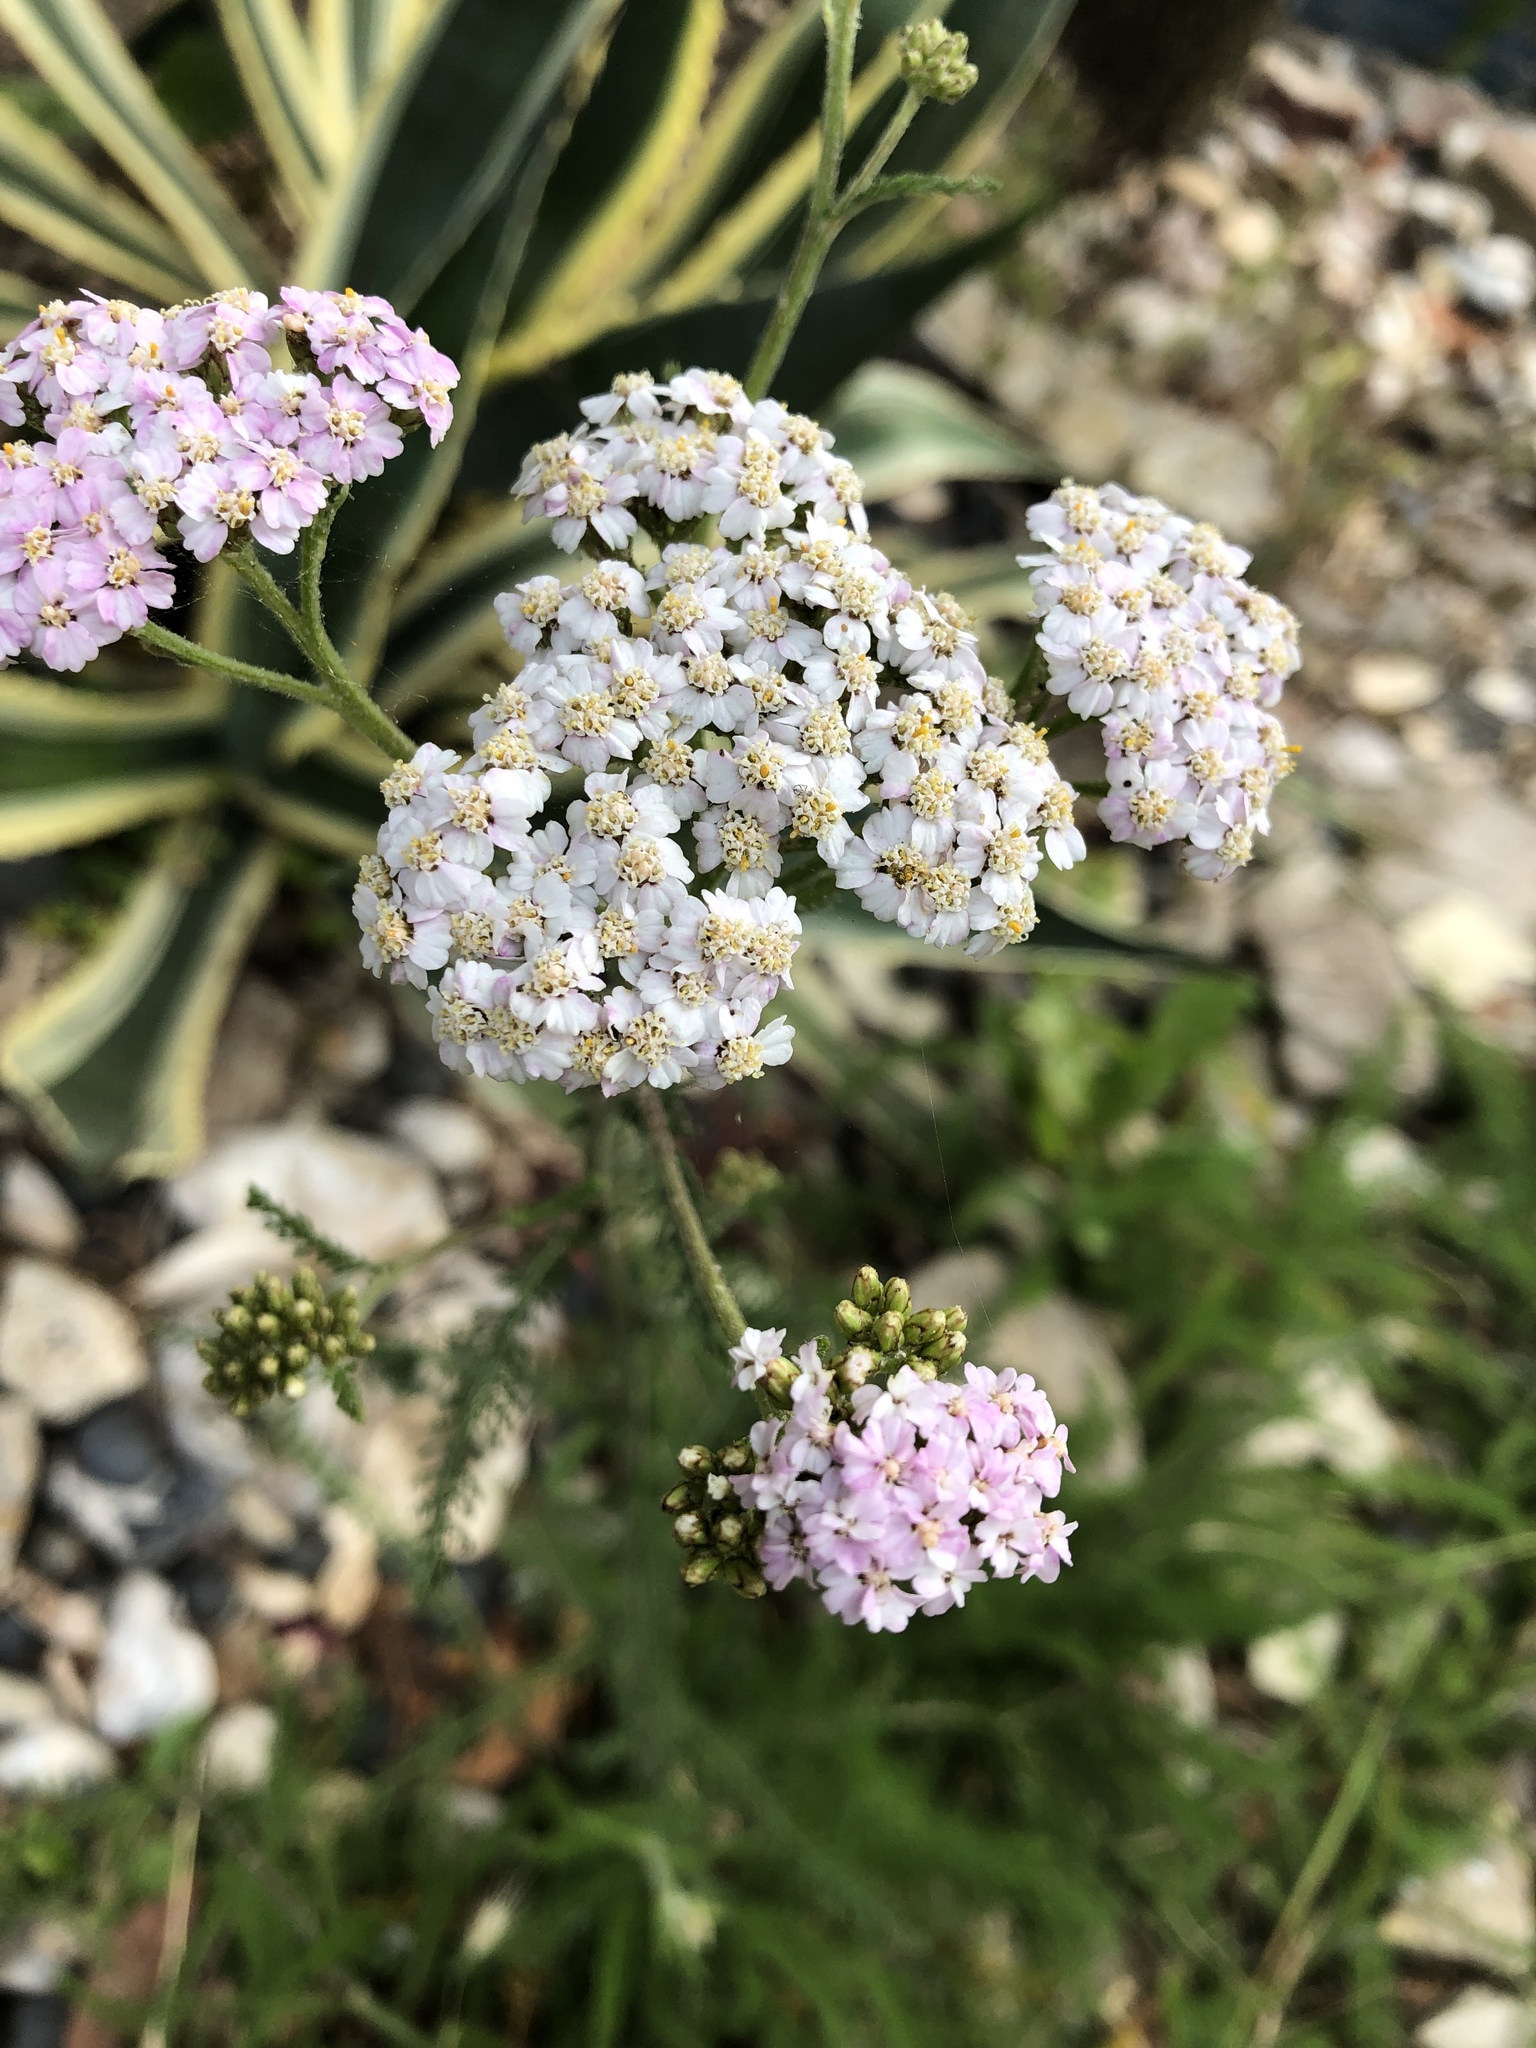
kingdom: Plantae
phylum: Tracheophyta
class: Magnoliopsida
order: Asterales
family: Asteraceae
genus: Achillea
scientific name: Achillea millefolium
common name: Yarrow
